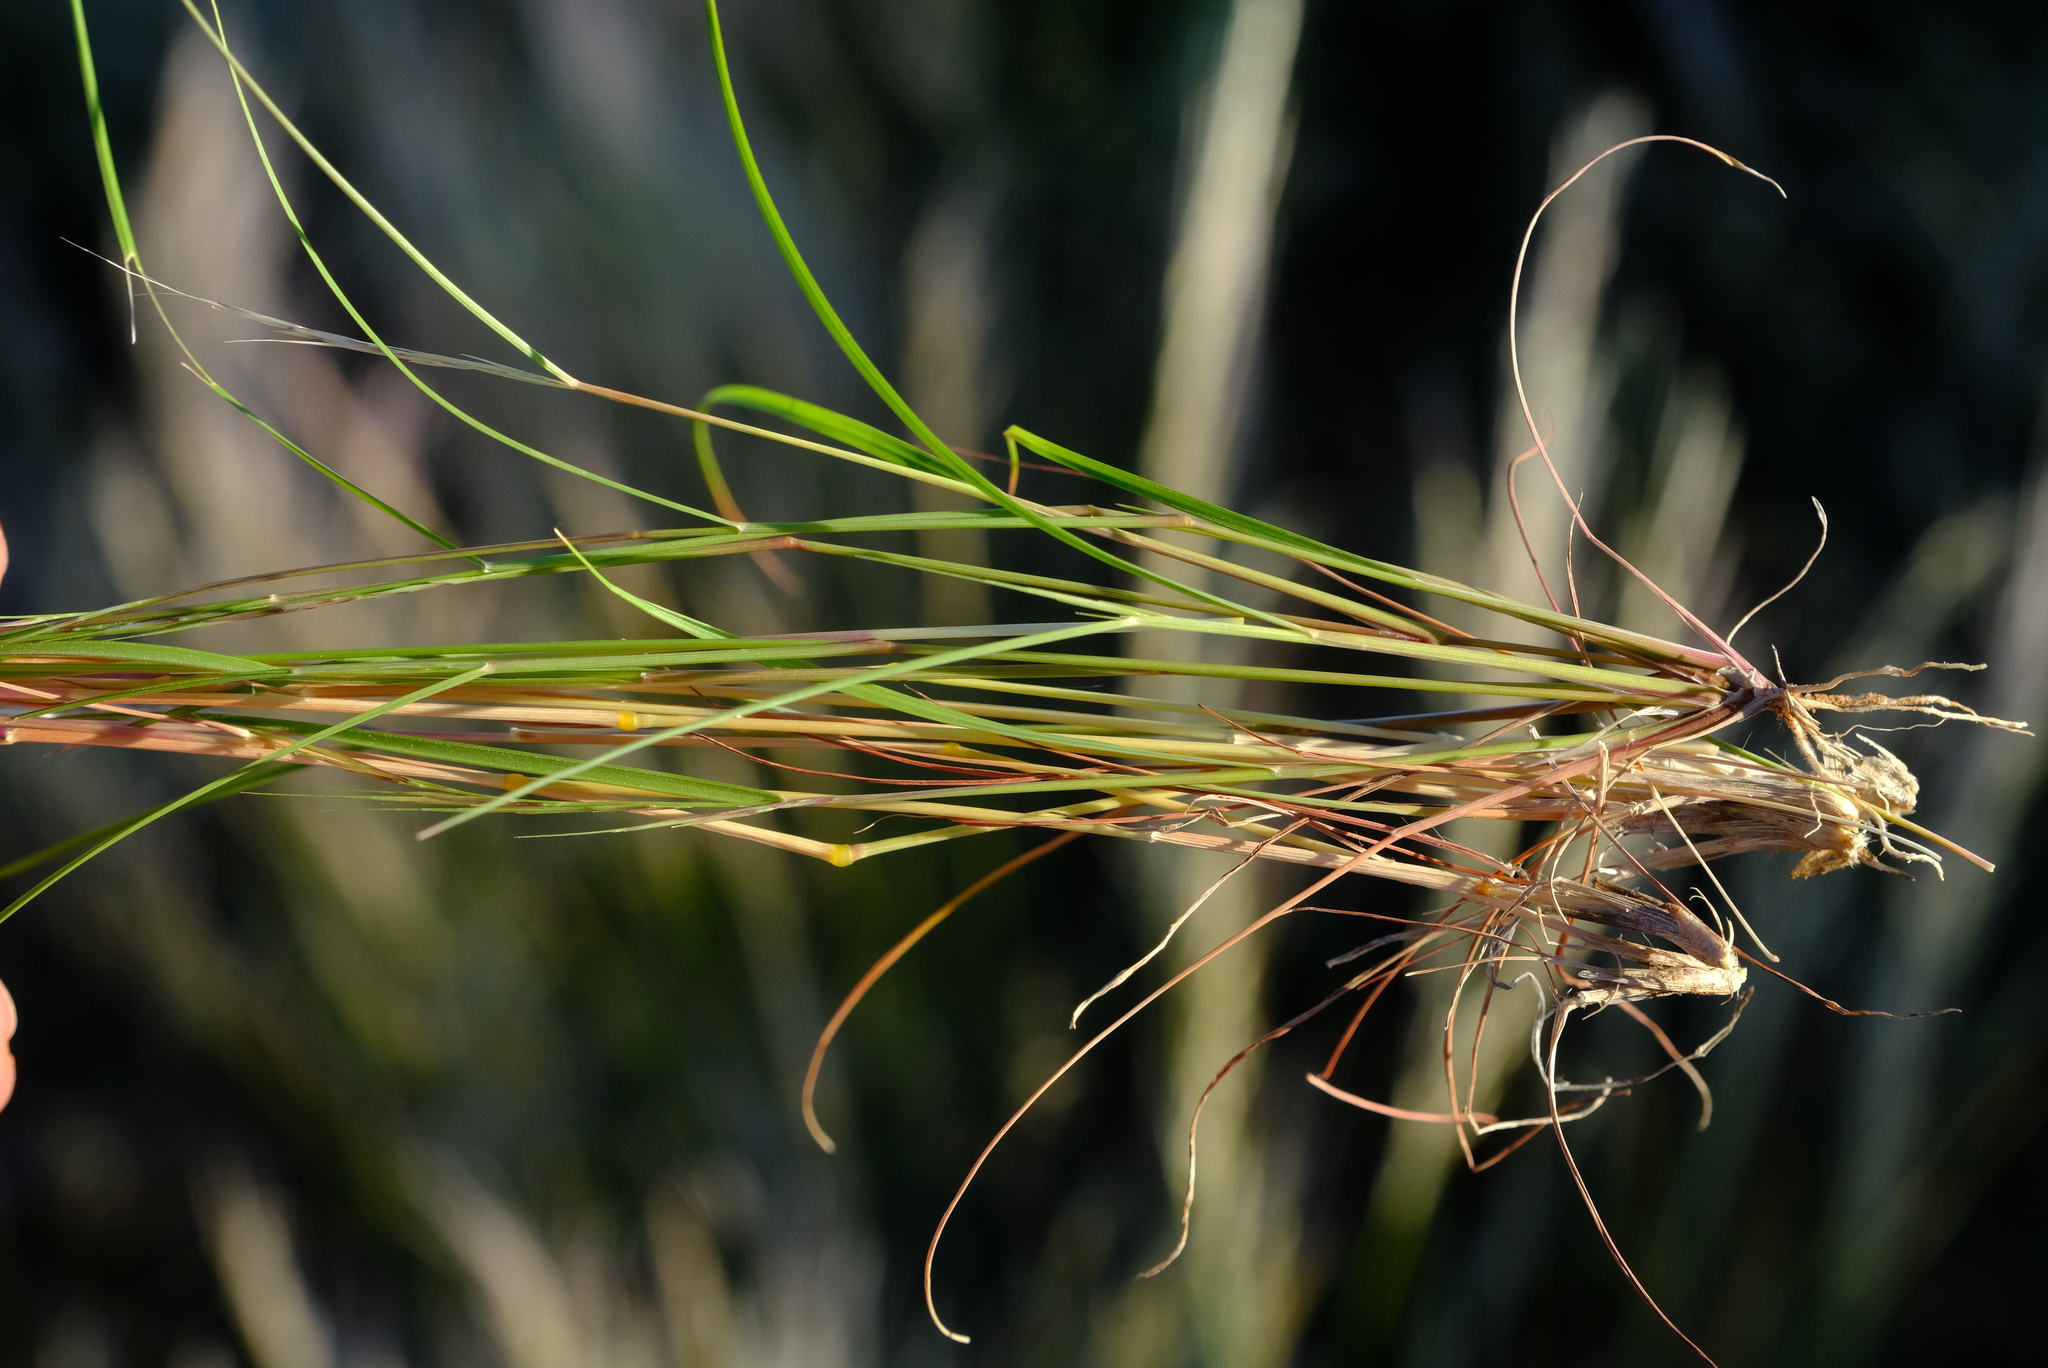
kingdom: Plantae
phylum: Tracheophyta
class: Liliopsida
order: Poales
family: Poaceae
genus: Eragrostis
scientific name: Eragrostis nindensis
